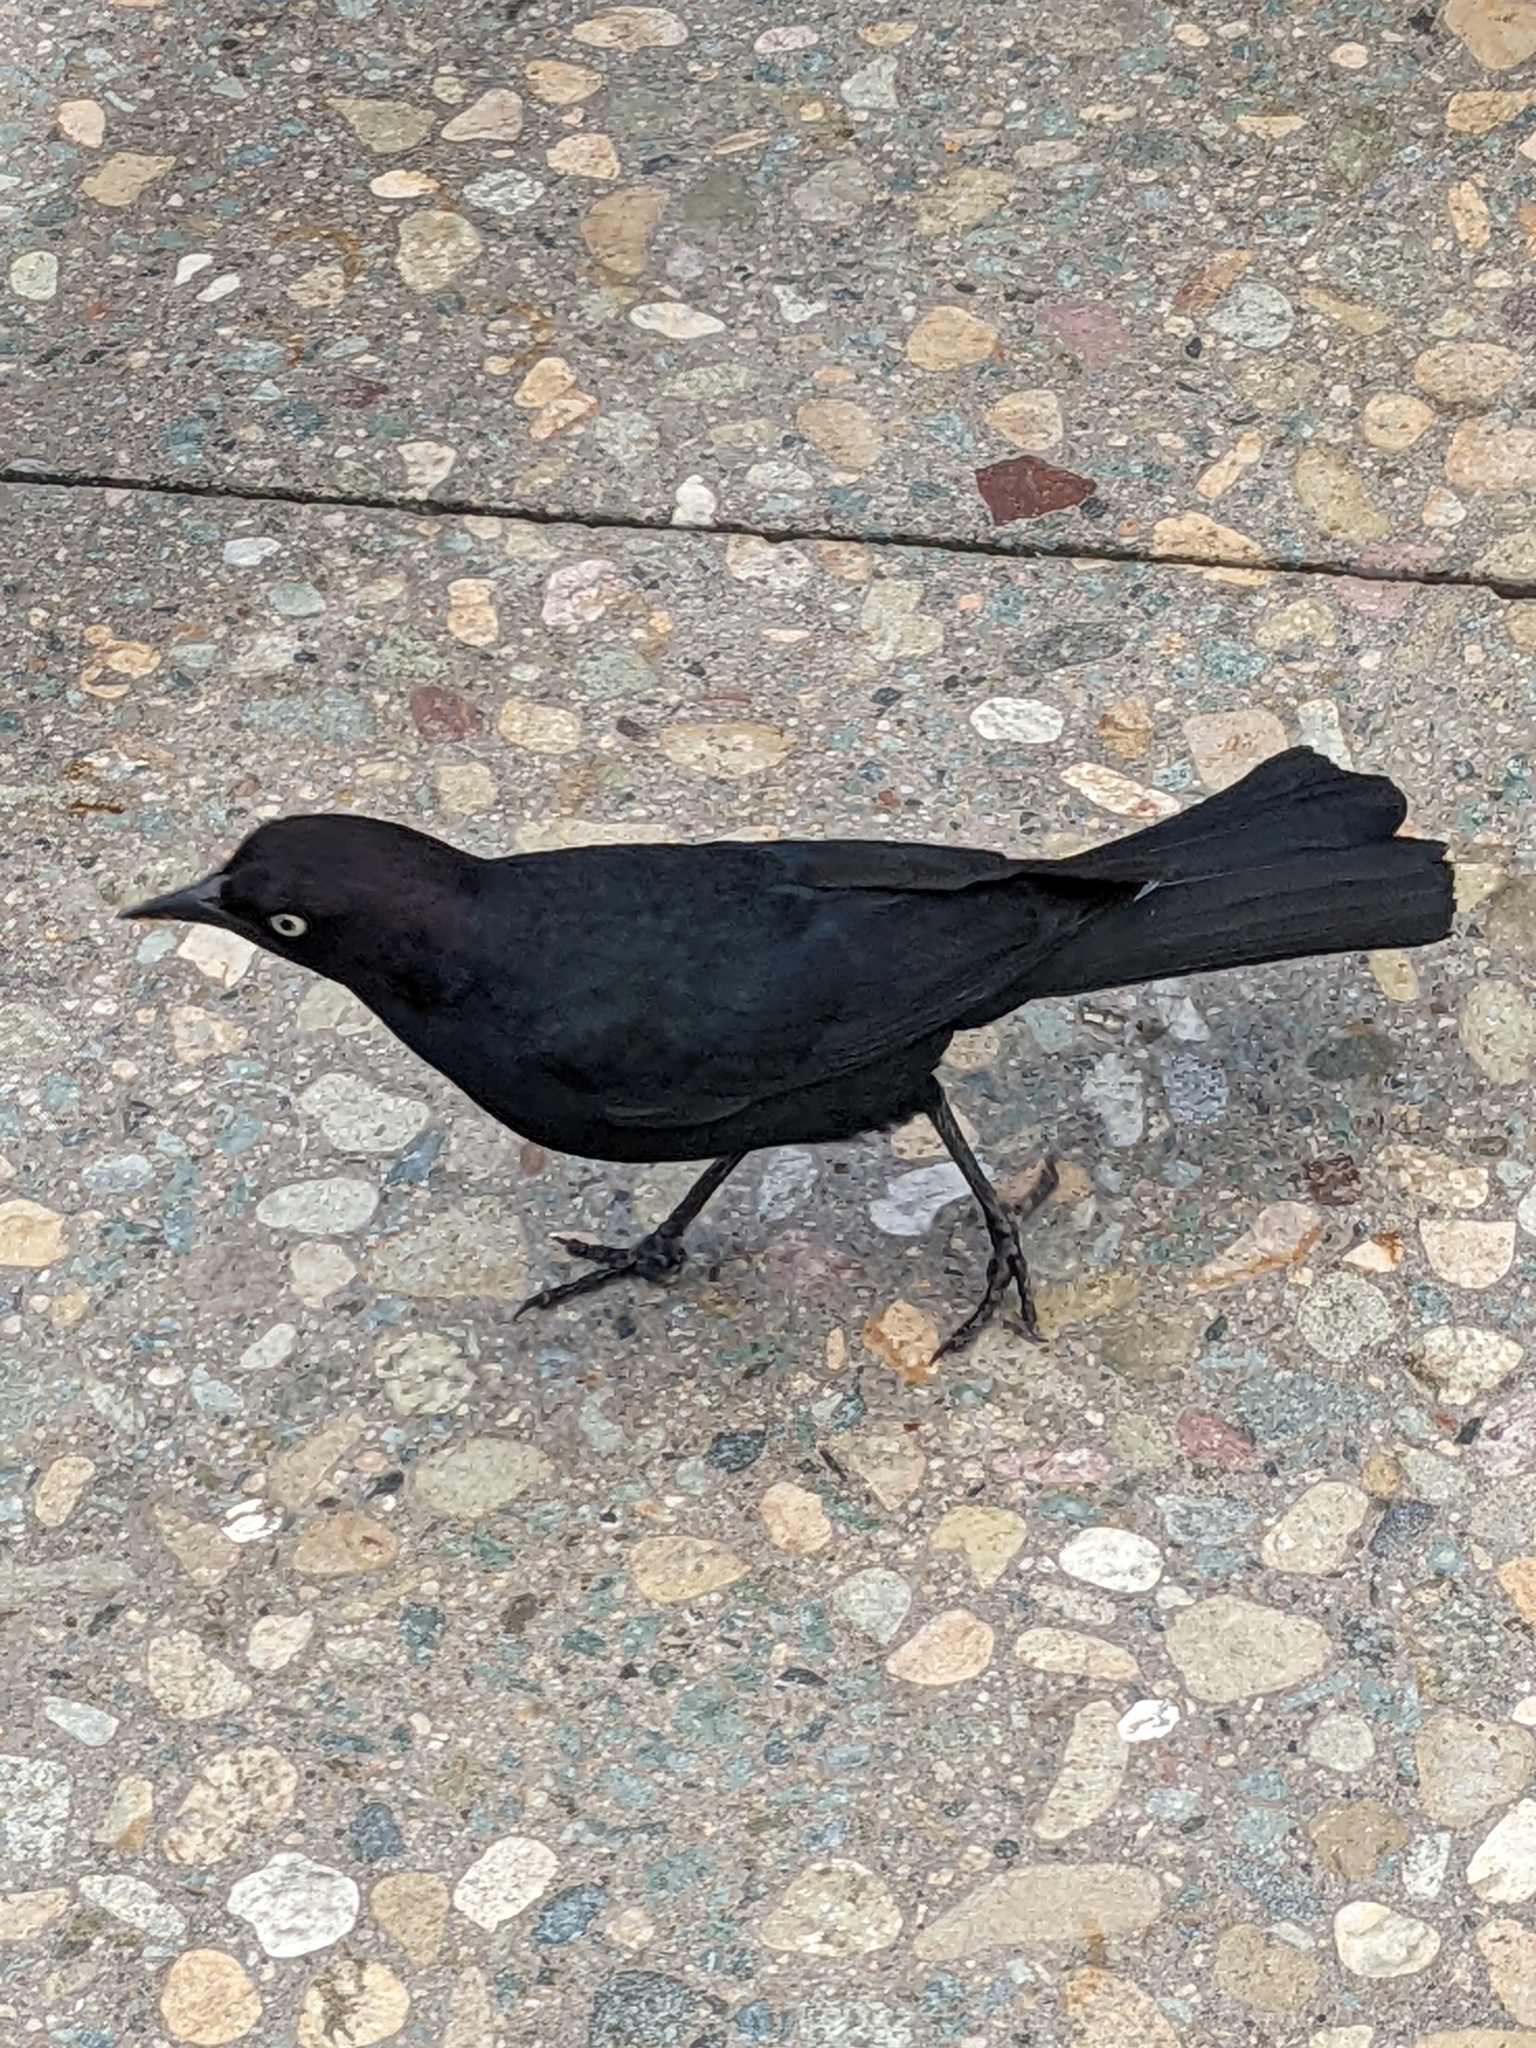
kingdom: Animalia
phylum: Chordata
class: Aves
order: Passeriformes
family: Icteridae
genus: Euphagus
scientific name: Euphagus cyanocephalus
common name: Brewer's blackbird
